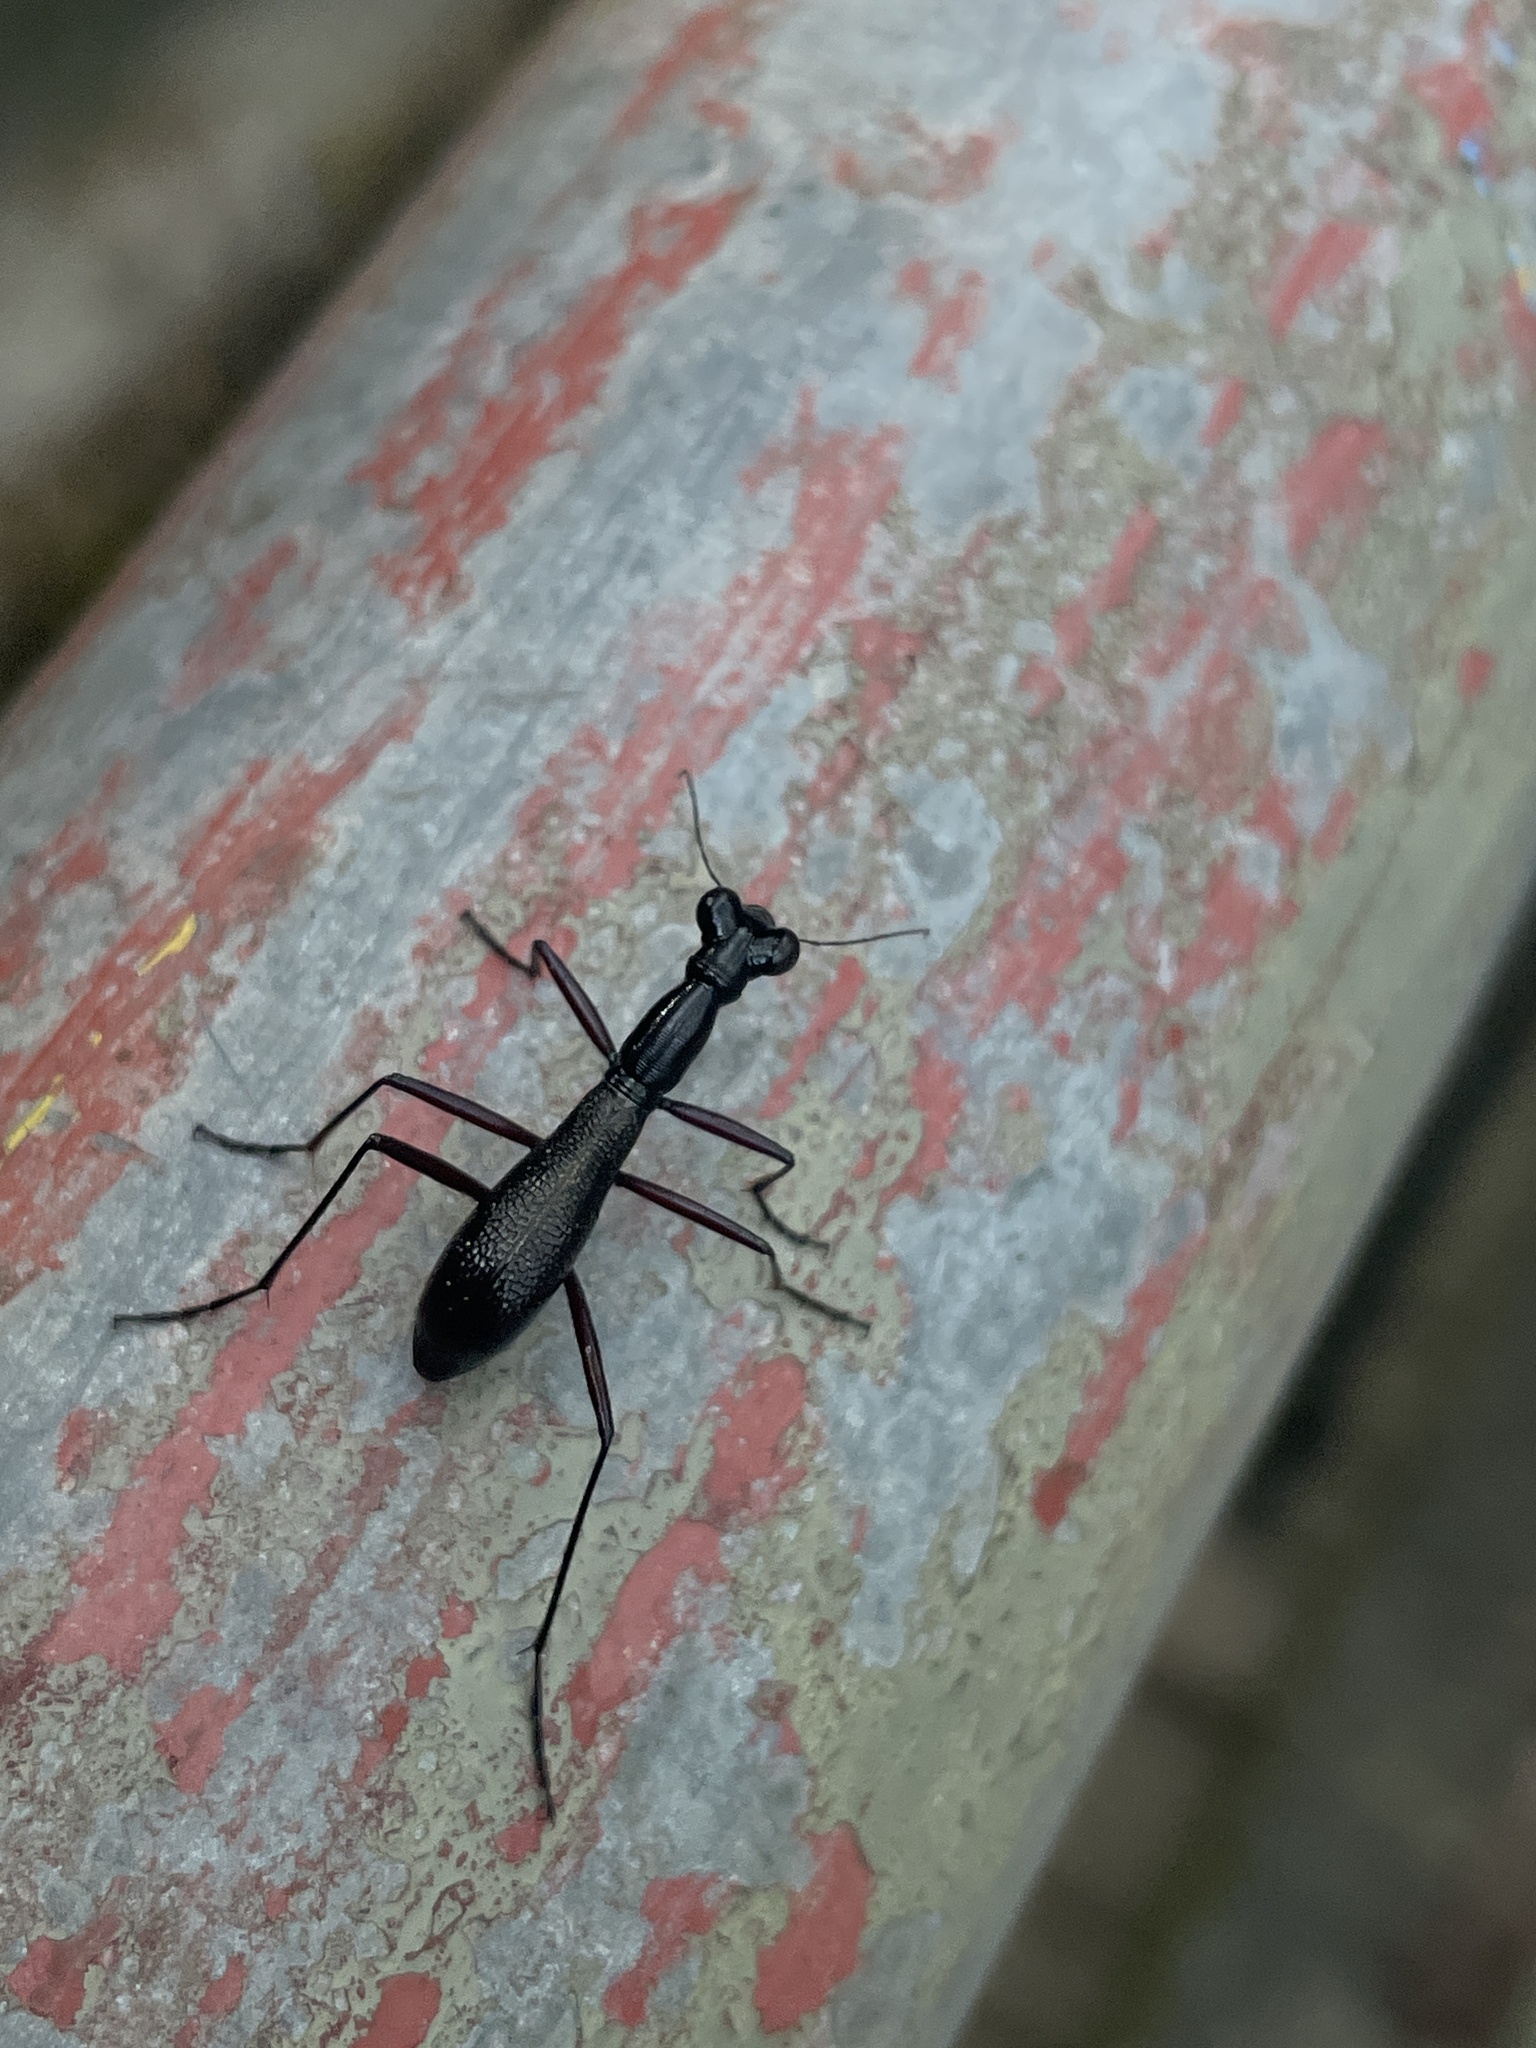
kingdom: Animalia
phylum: Arthropoda
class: Insecta
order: Coleoptera
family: Carabidae
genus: Tricondyla
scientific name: Tricondyla pulchripes
